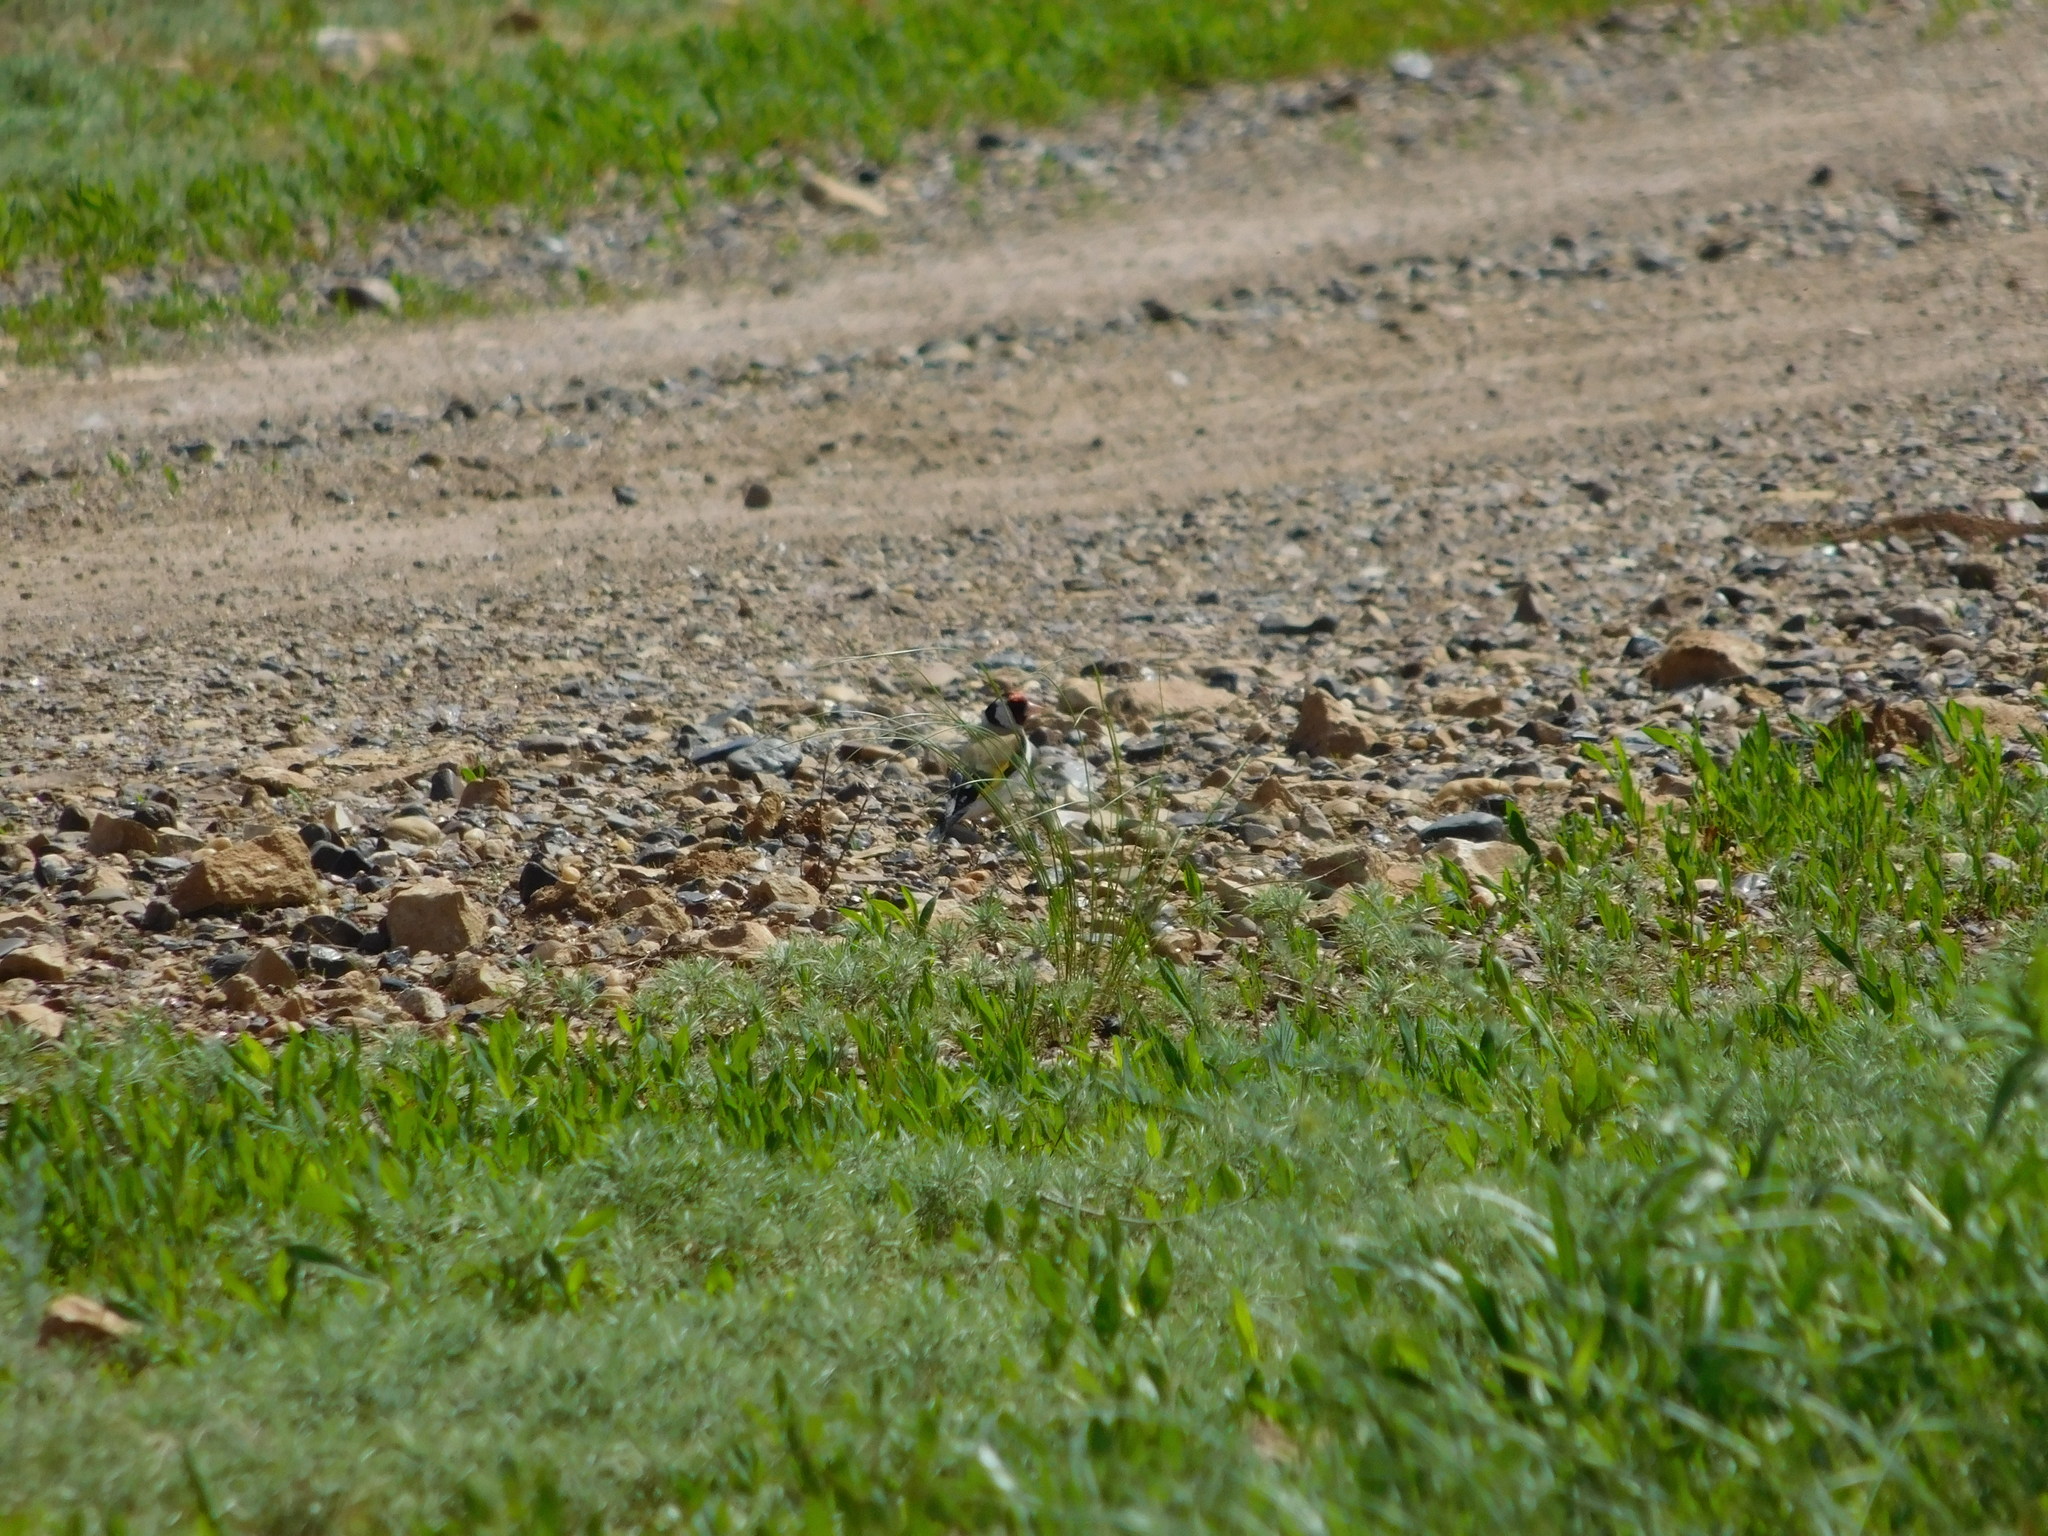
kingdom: Animalia
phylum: Chordata
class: Aves
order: Passeriformes
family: Fringillidae
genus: Carduelis
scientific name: Carduelis carduelis
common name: European goldfinch
